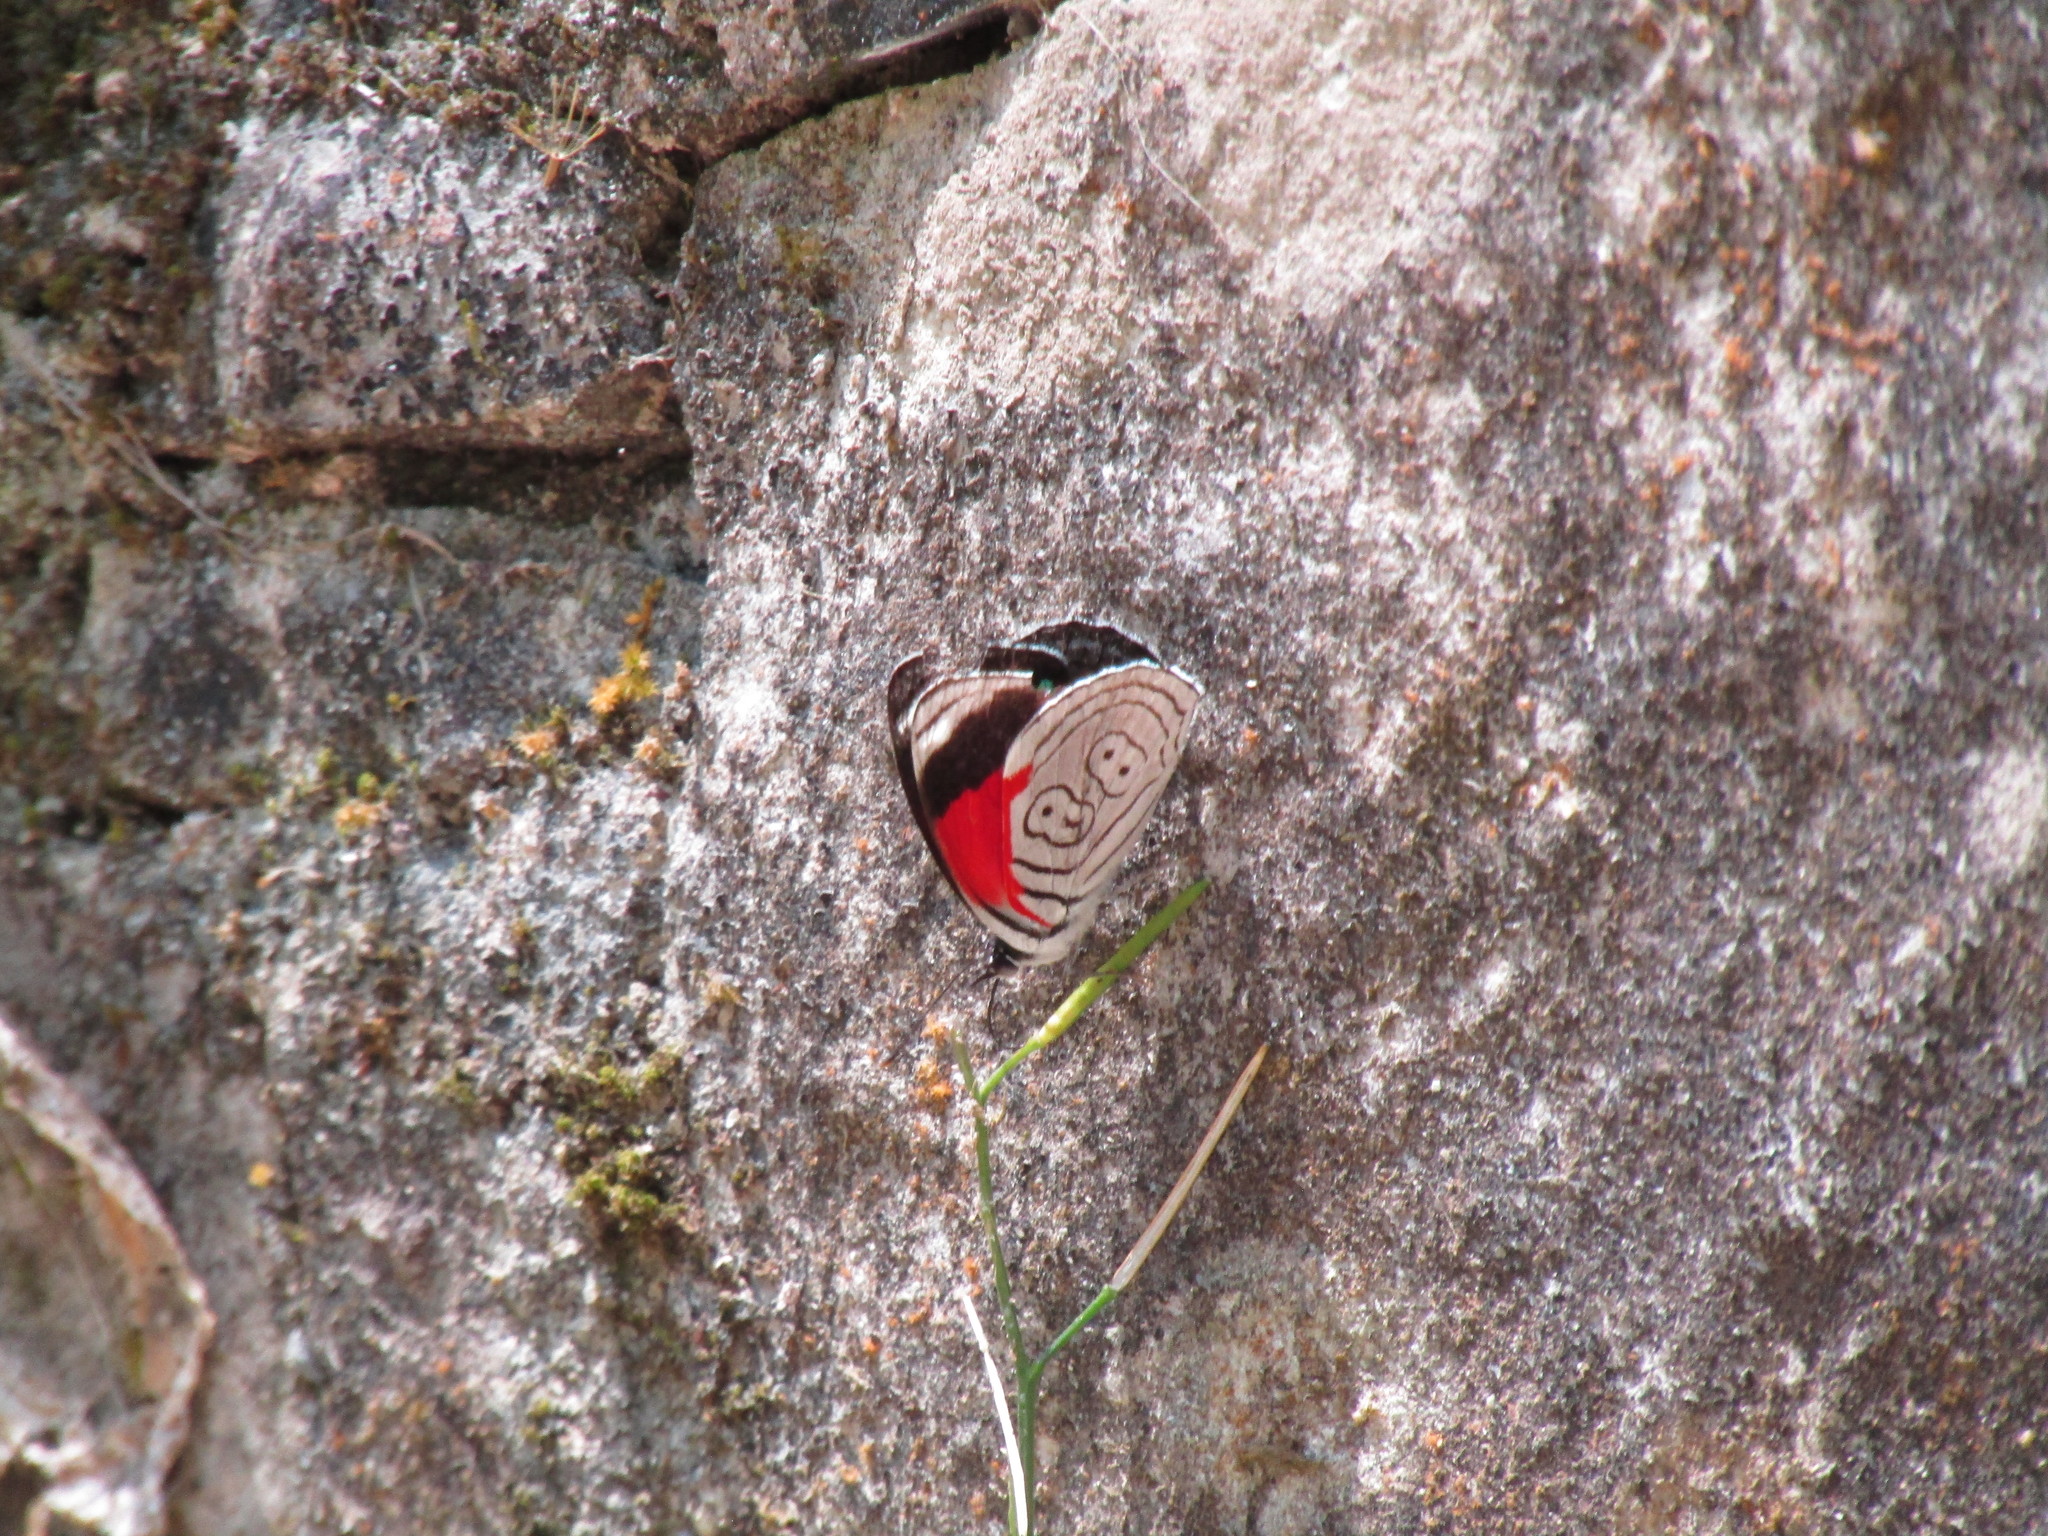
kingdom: Animalia
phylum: Arthropoda
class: Insecta
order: Lepidoptera
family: Nymphalidae
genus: Diaethria
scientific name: Diaethria anna
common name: Anna’s eighty-eight
